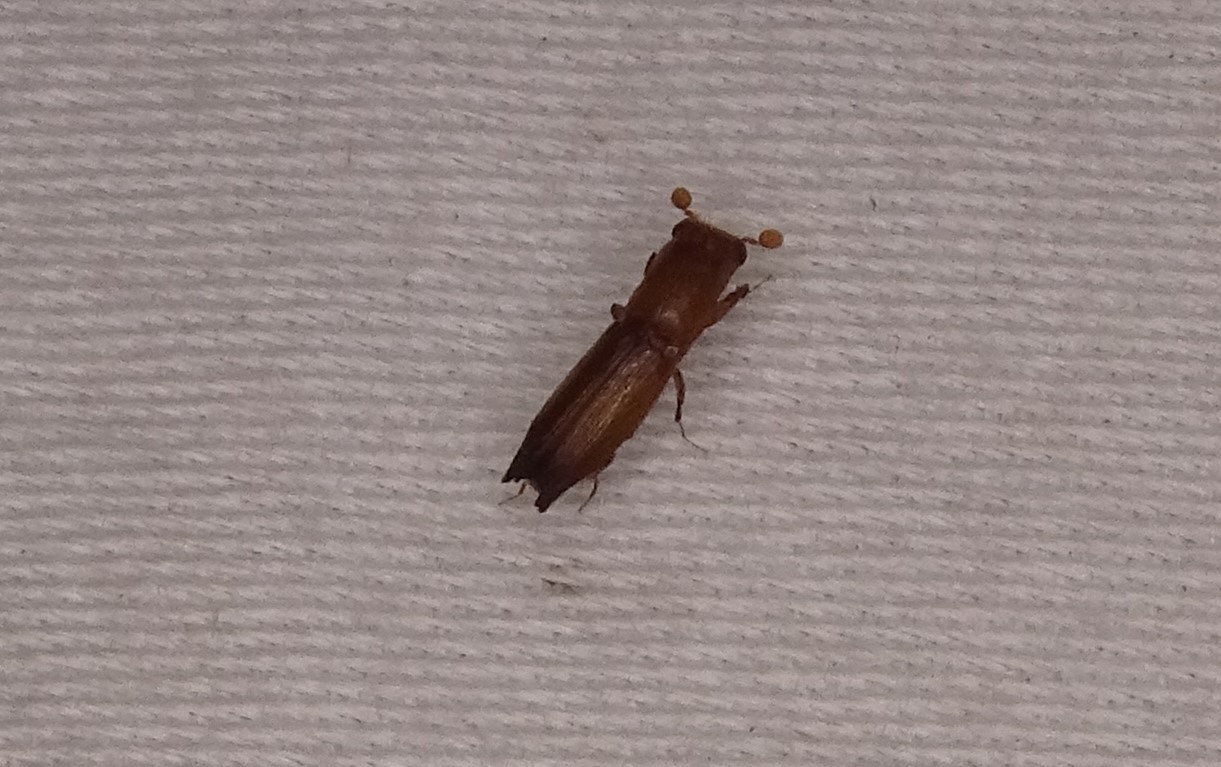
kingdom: Animalia
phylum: Arthropoda
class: Insecta
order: Coleoptera
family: Curculionidae
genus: Euplatypus
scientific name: Euplatypus compositus
